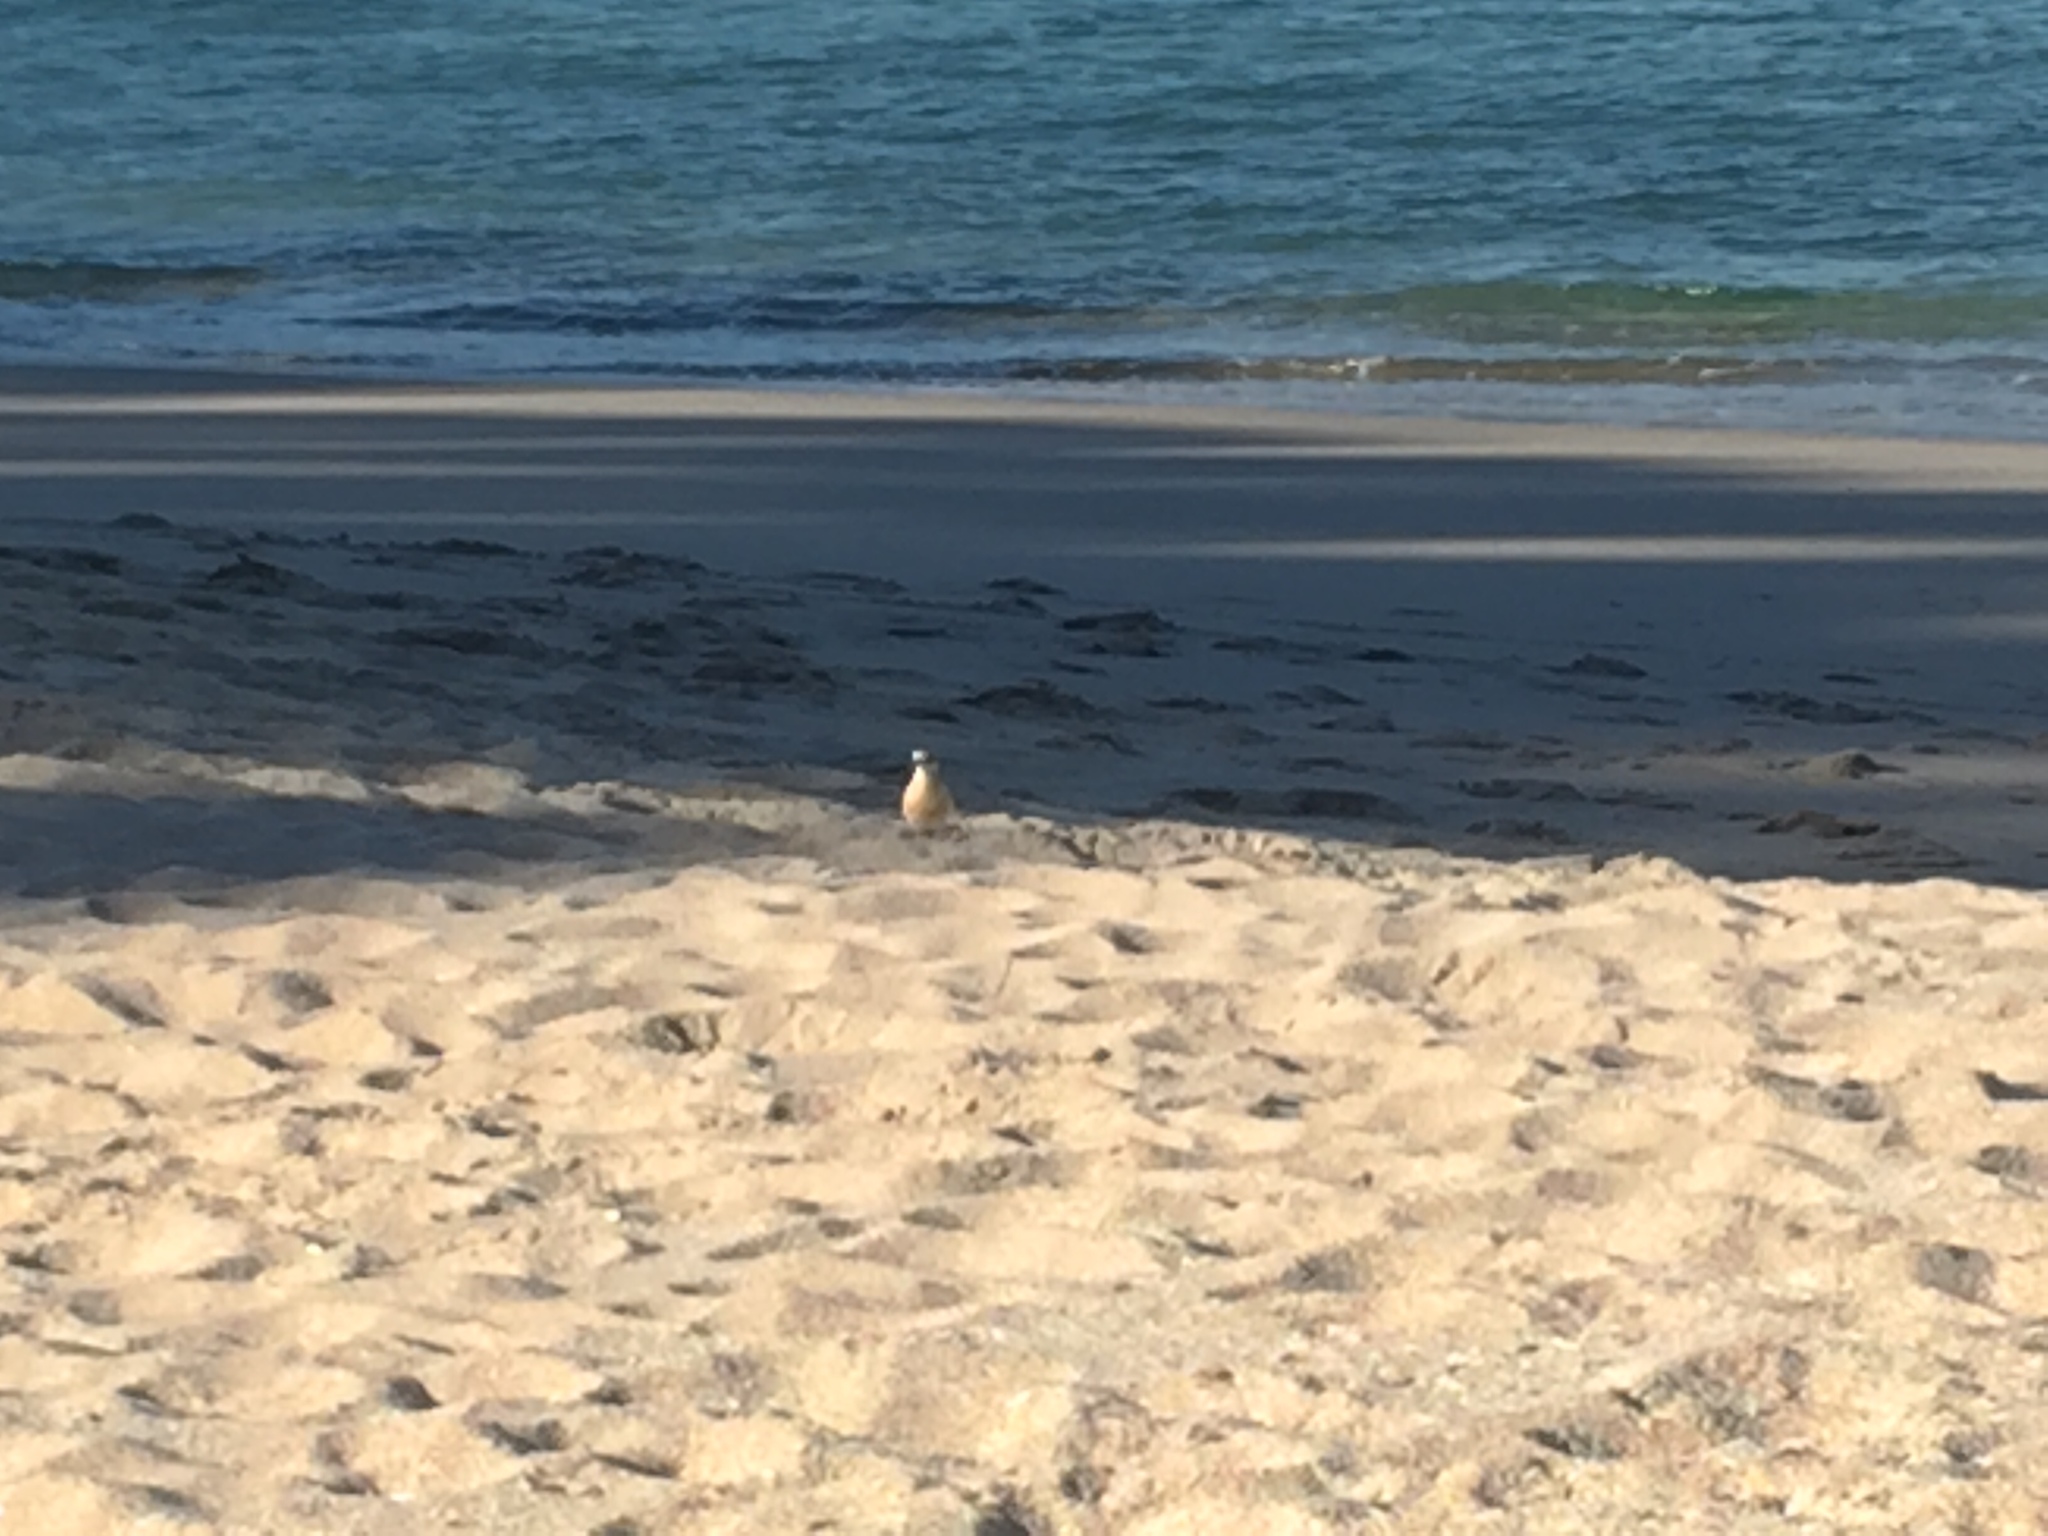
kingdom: Animalia
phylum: Chordata
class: Aves
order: Charadriiformes
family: Charadriidae
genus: Anarhynchus
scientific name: Anarhynchus
